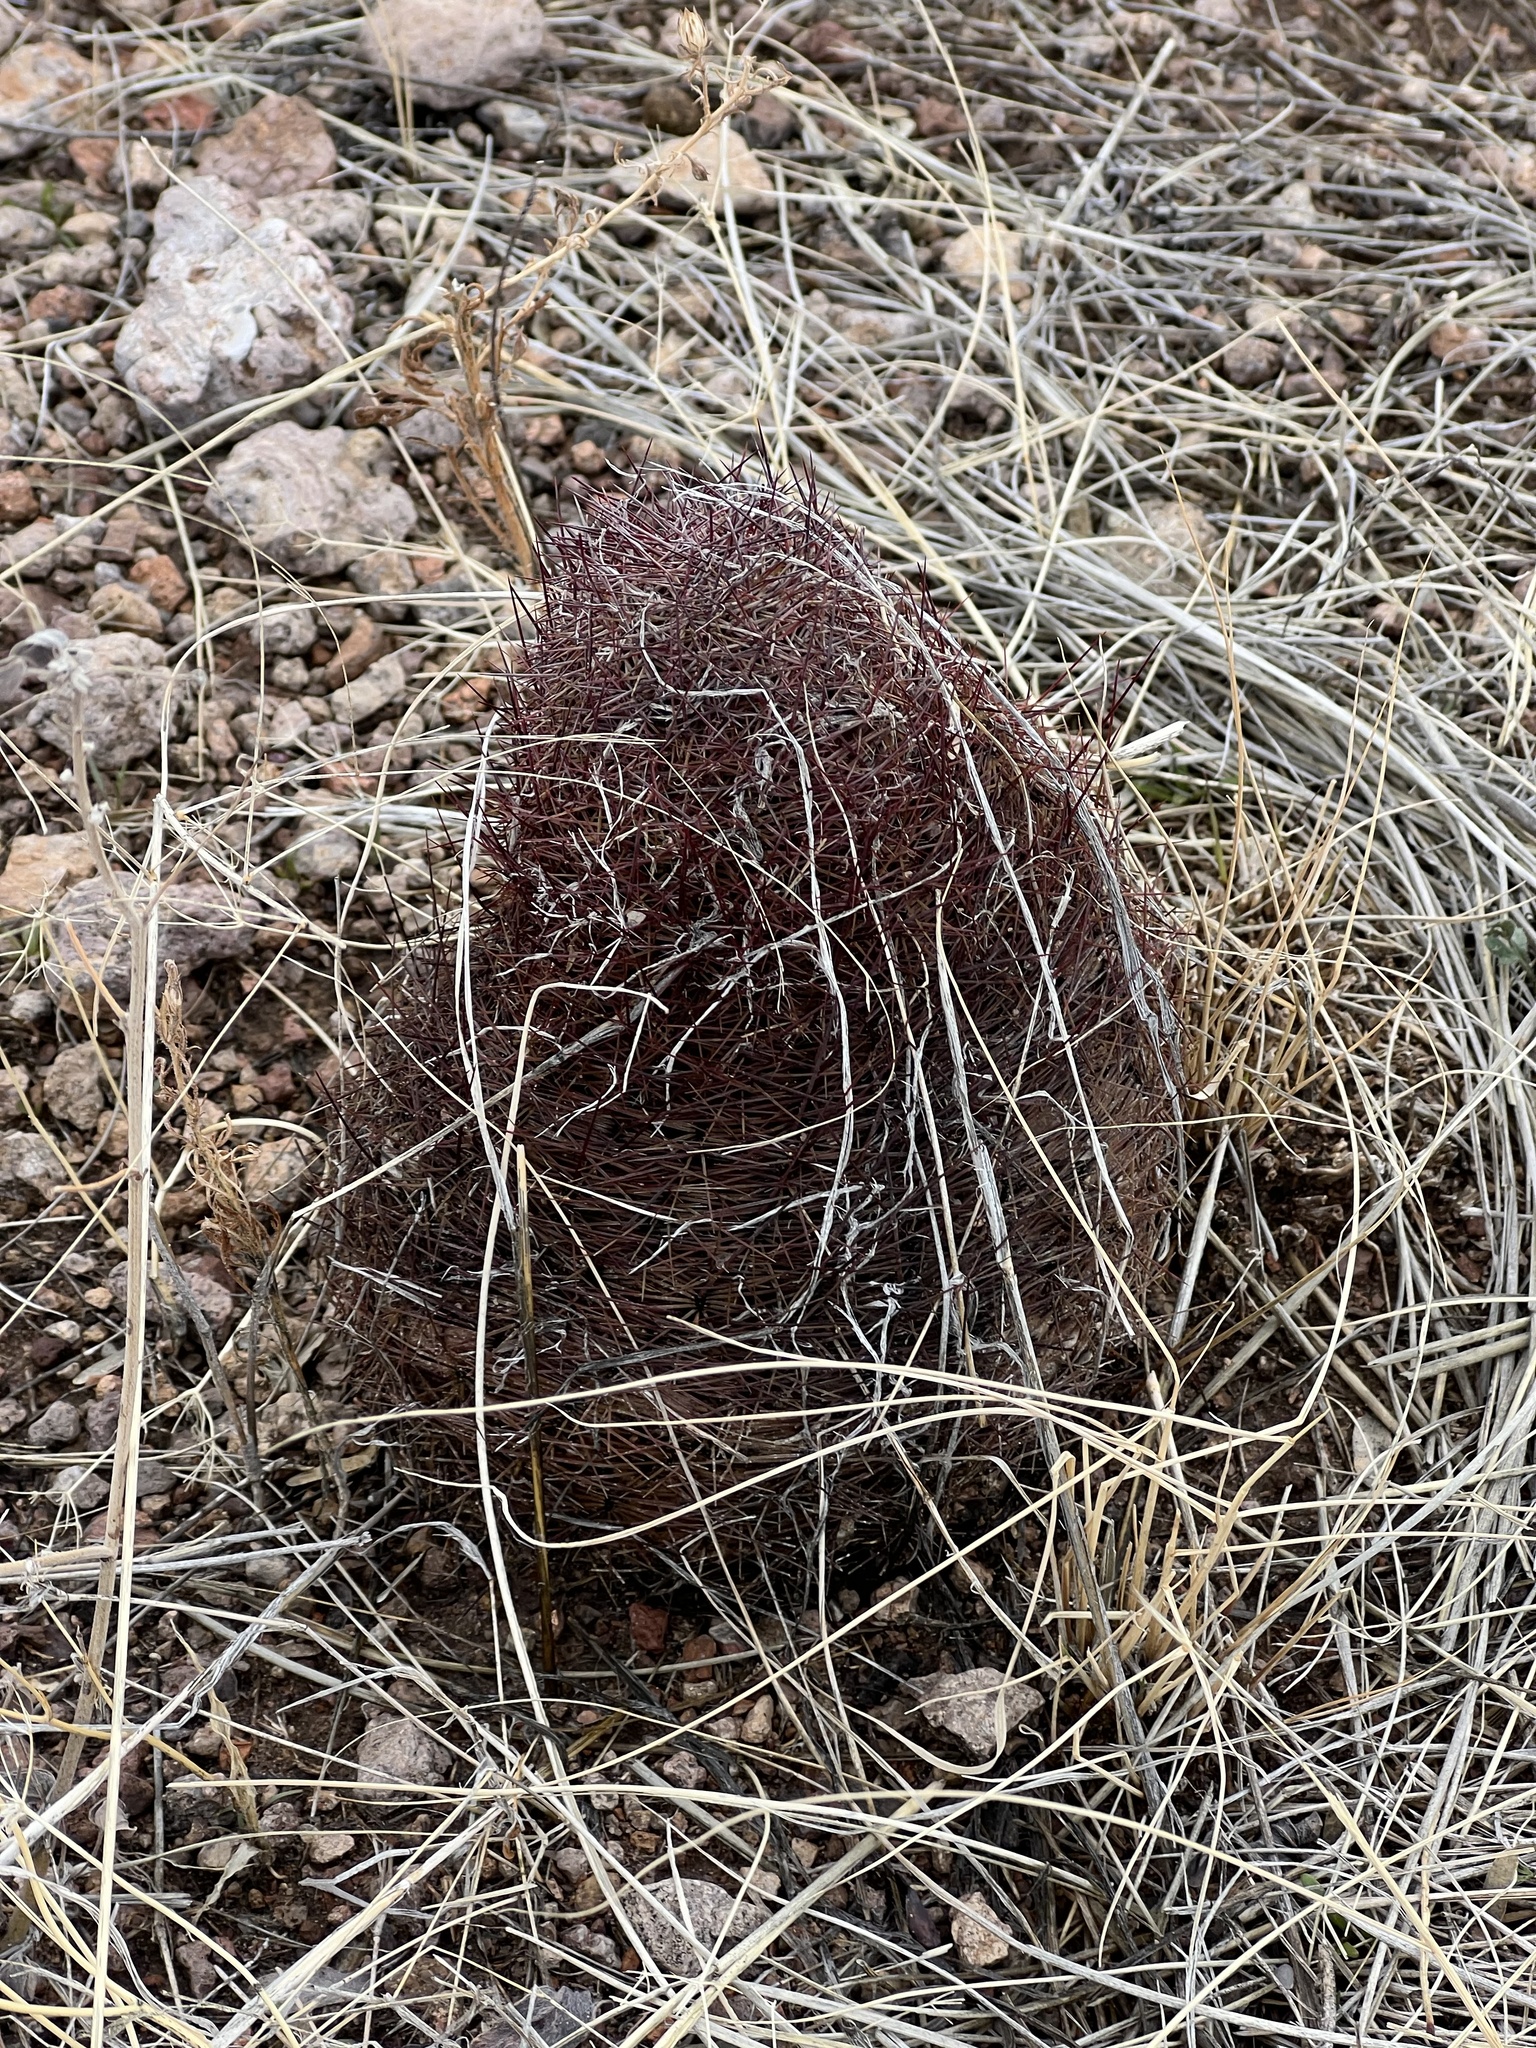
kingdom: Plantae
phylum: Tracheophyta
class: Magnoliopsida
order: Caryophyllales
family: Cactaceae
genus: Sclerocactus
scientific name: Sclerocactus johnsonii
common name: Eight-spine fishhook cactus
